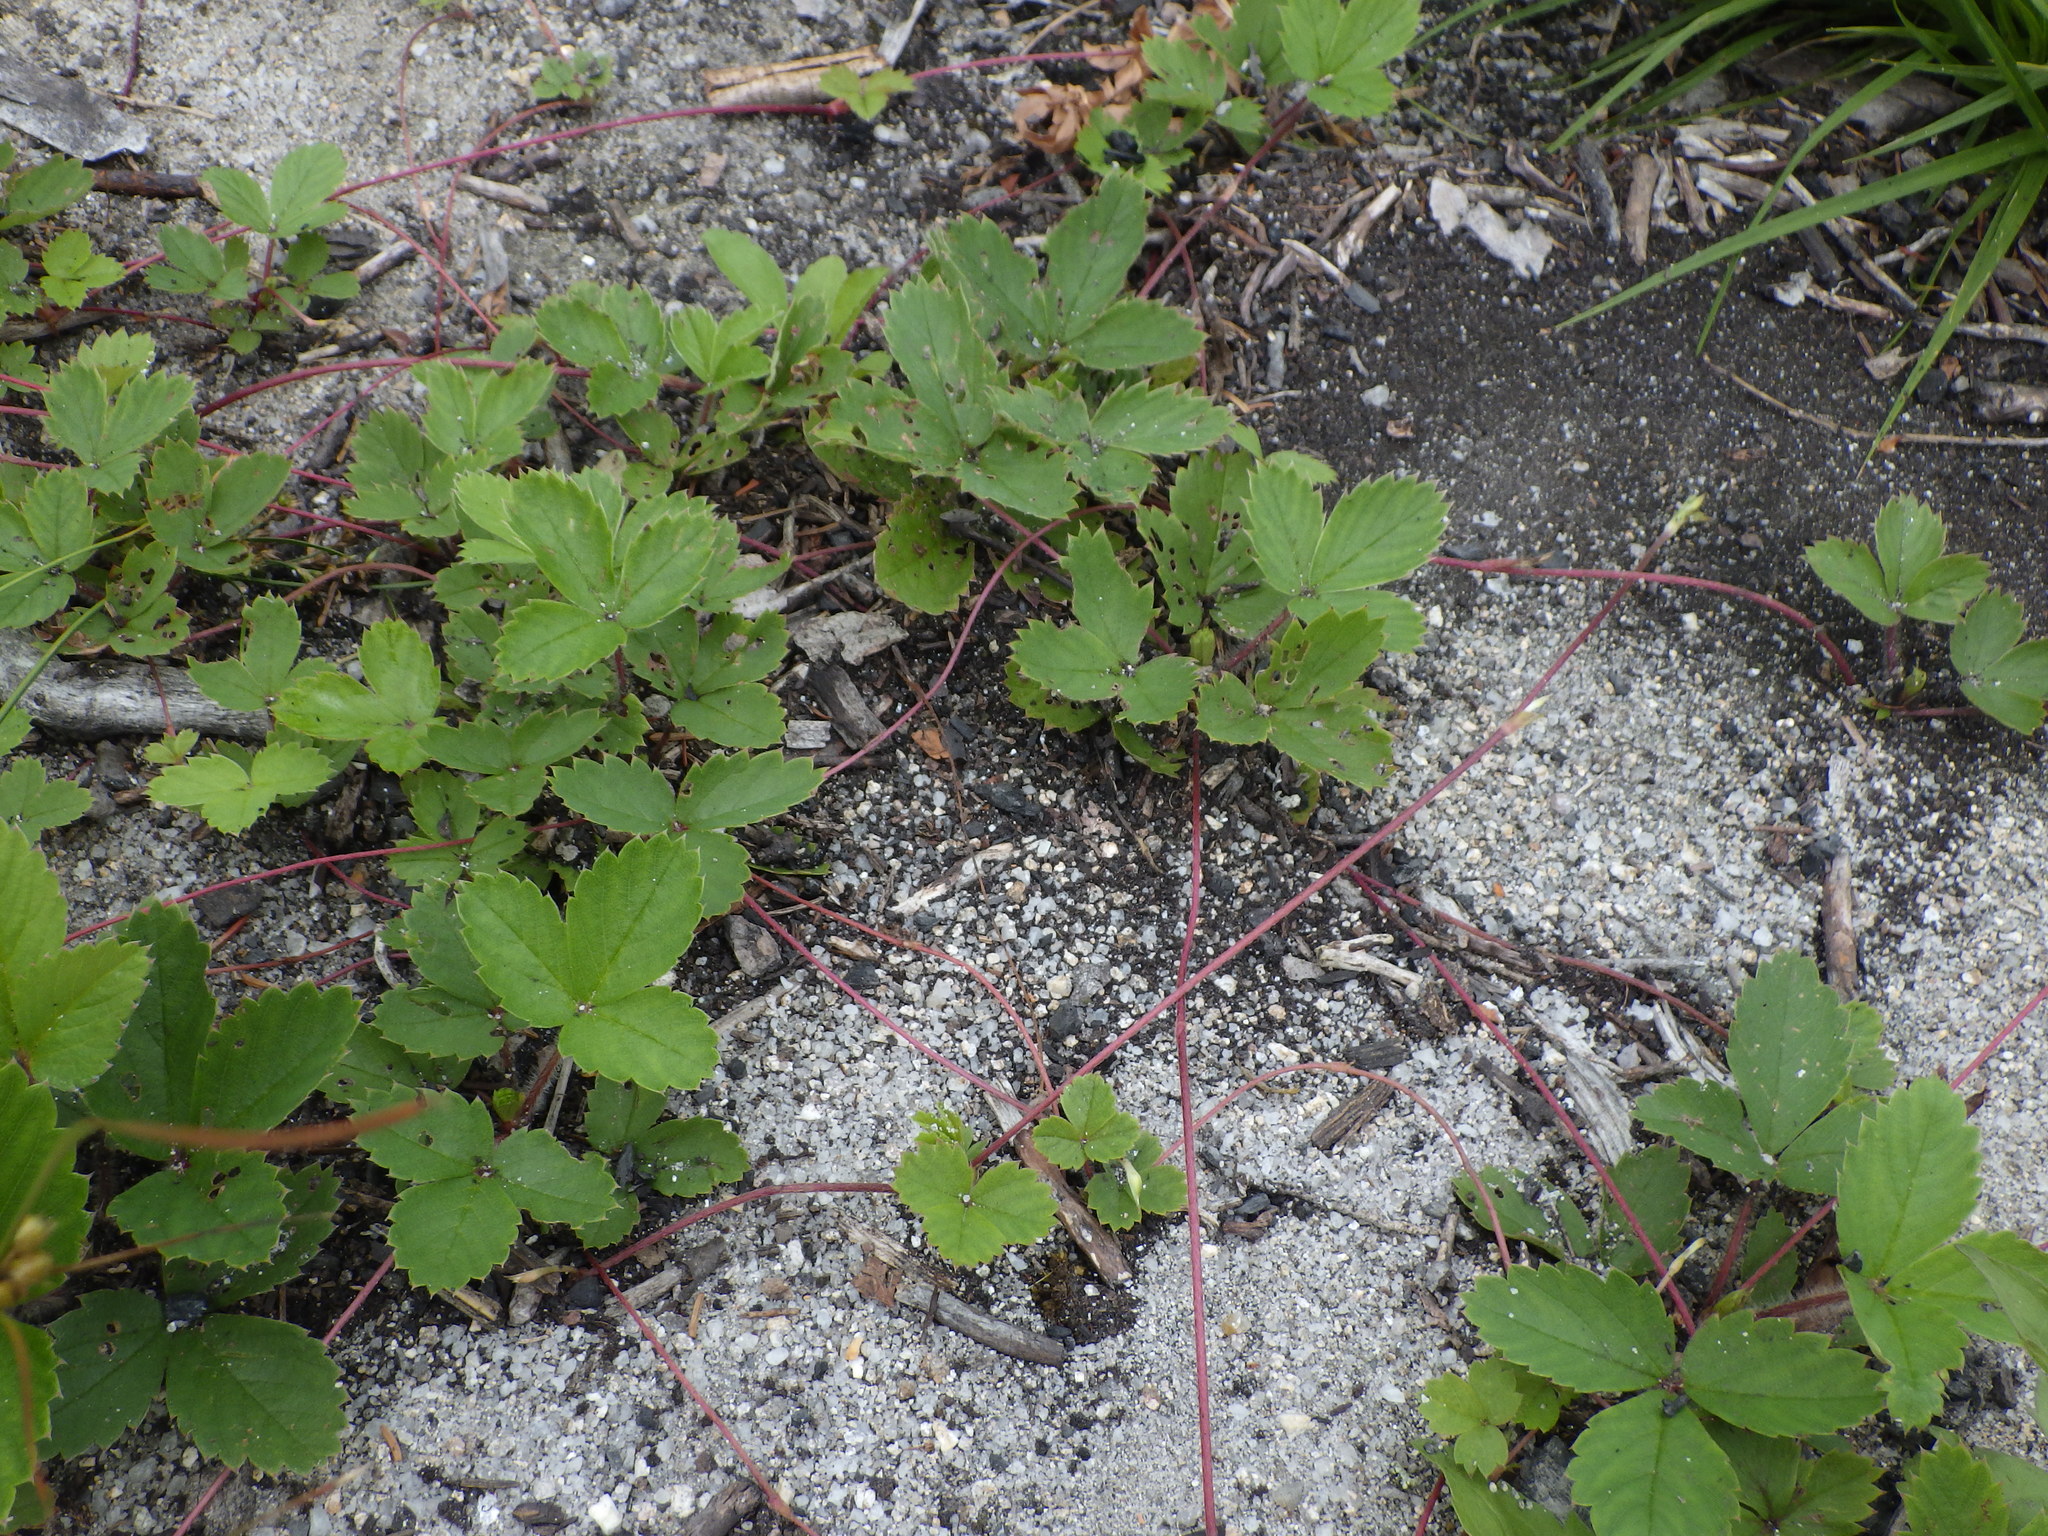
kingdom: Plantae
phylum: Tracheophyta
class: Magnoliopsida
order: Rosales
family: Rosaceae
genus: Fragaria
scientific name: Fragaria virginiana
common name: Thickleaved wild strawberry
